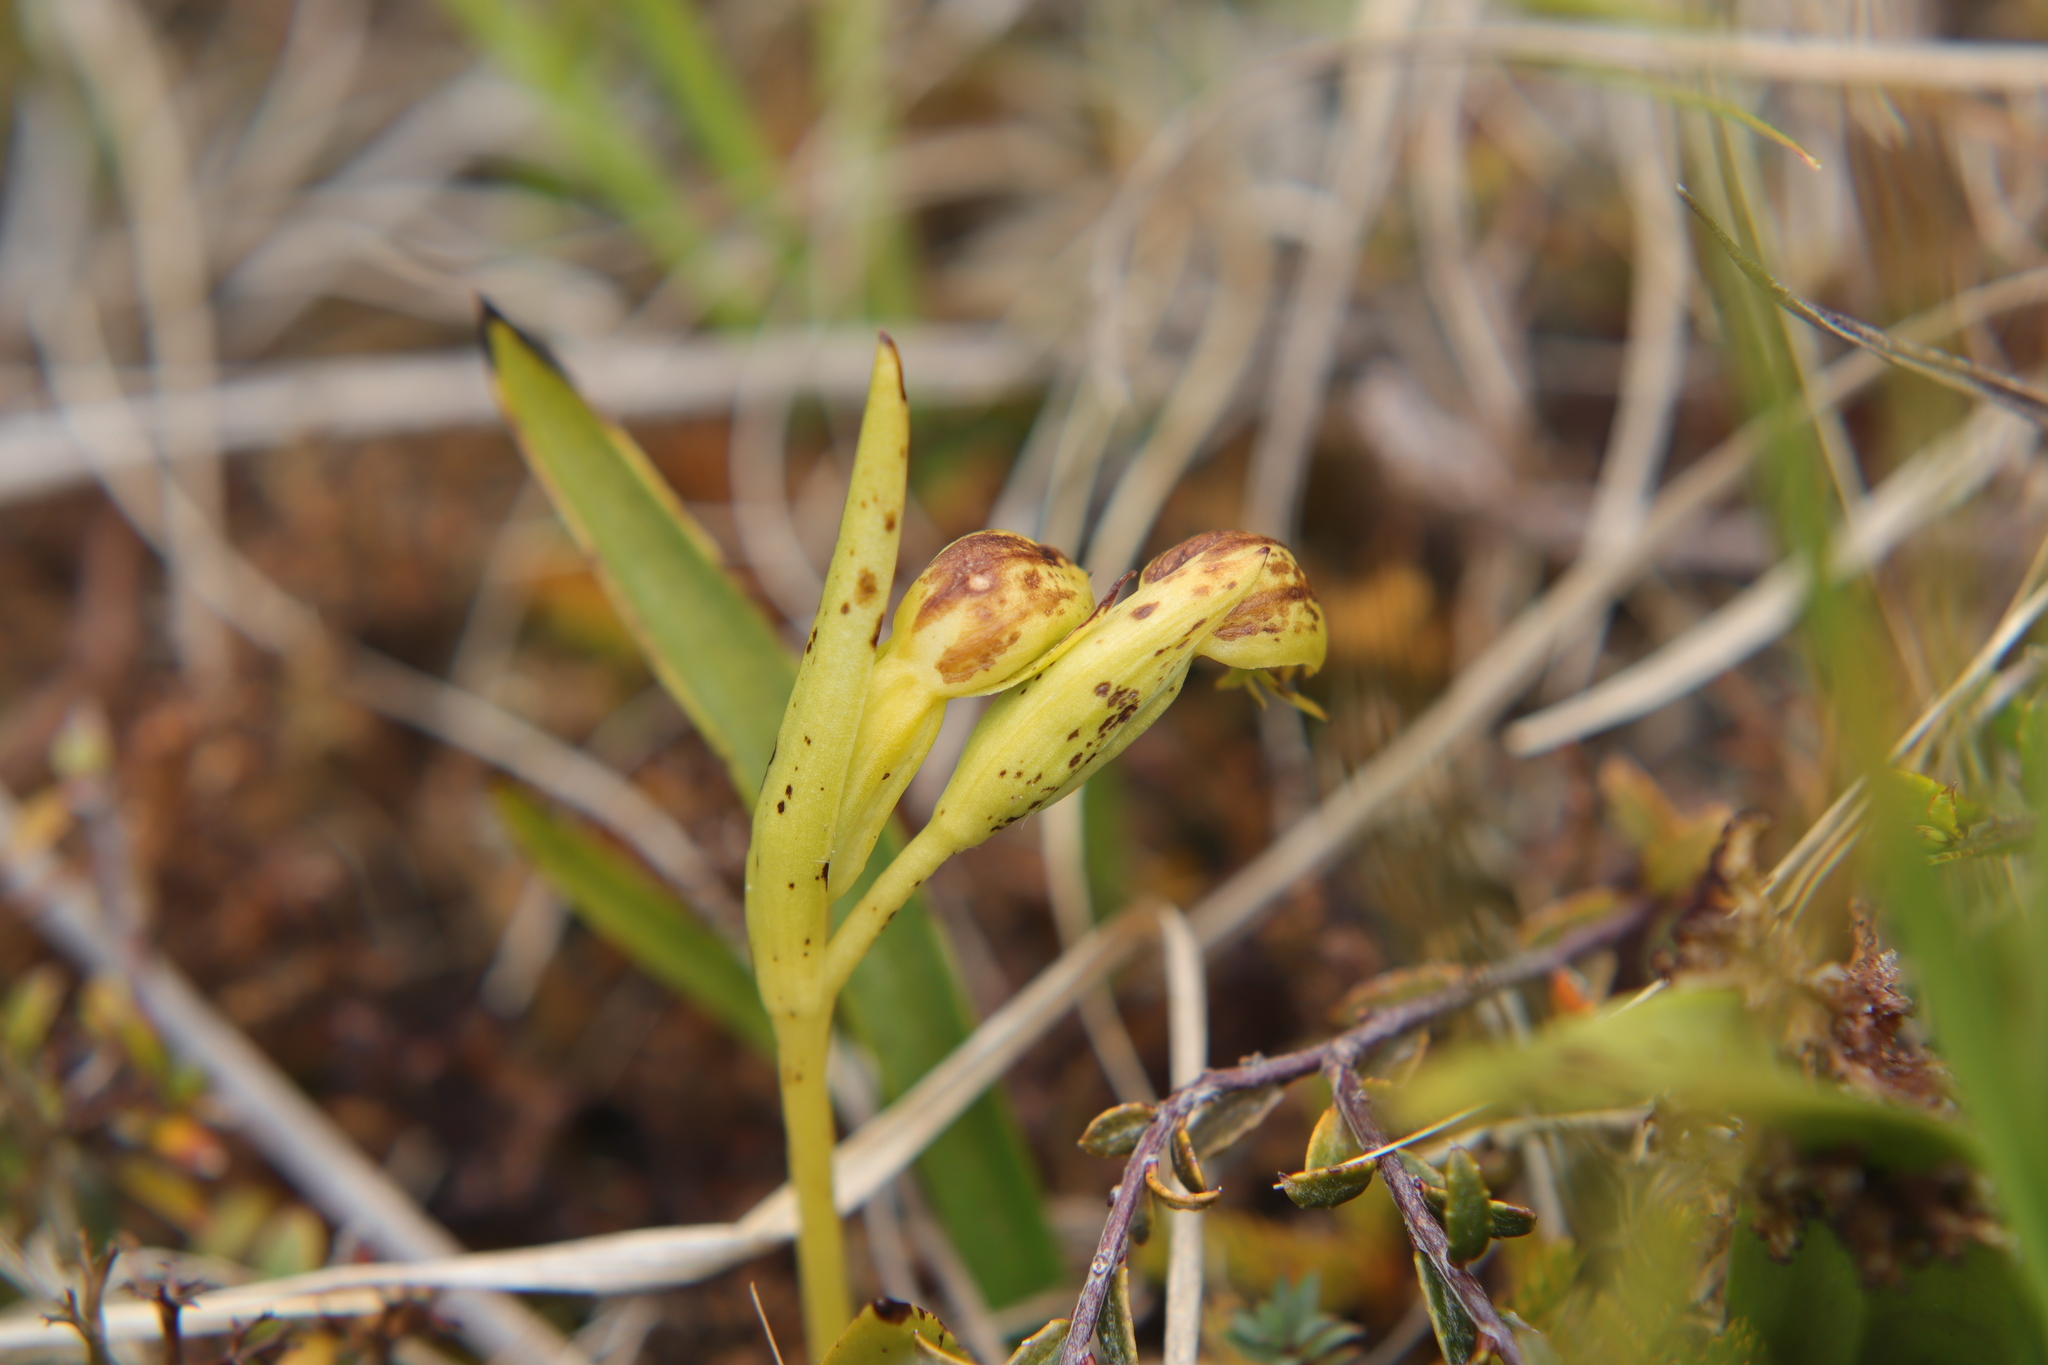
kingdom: Plantae
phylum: Tracheophyta
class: Liliopsida
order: Asparagales
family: Orchidaceae
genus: Waireia
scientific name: Waireia stenopetala
